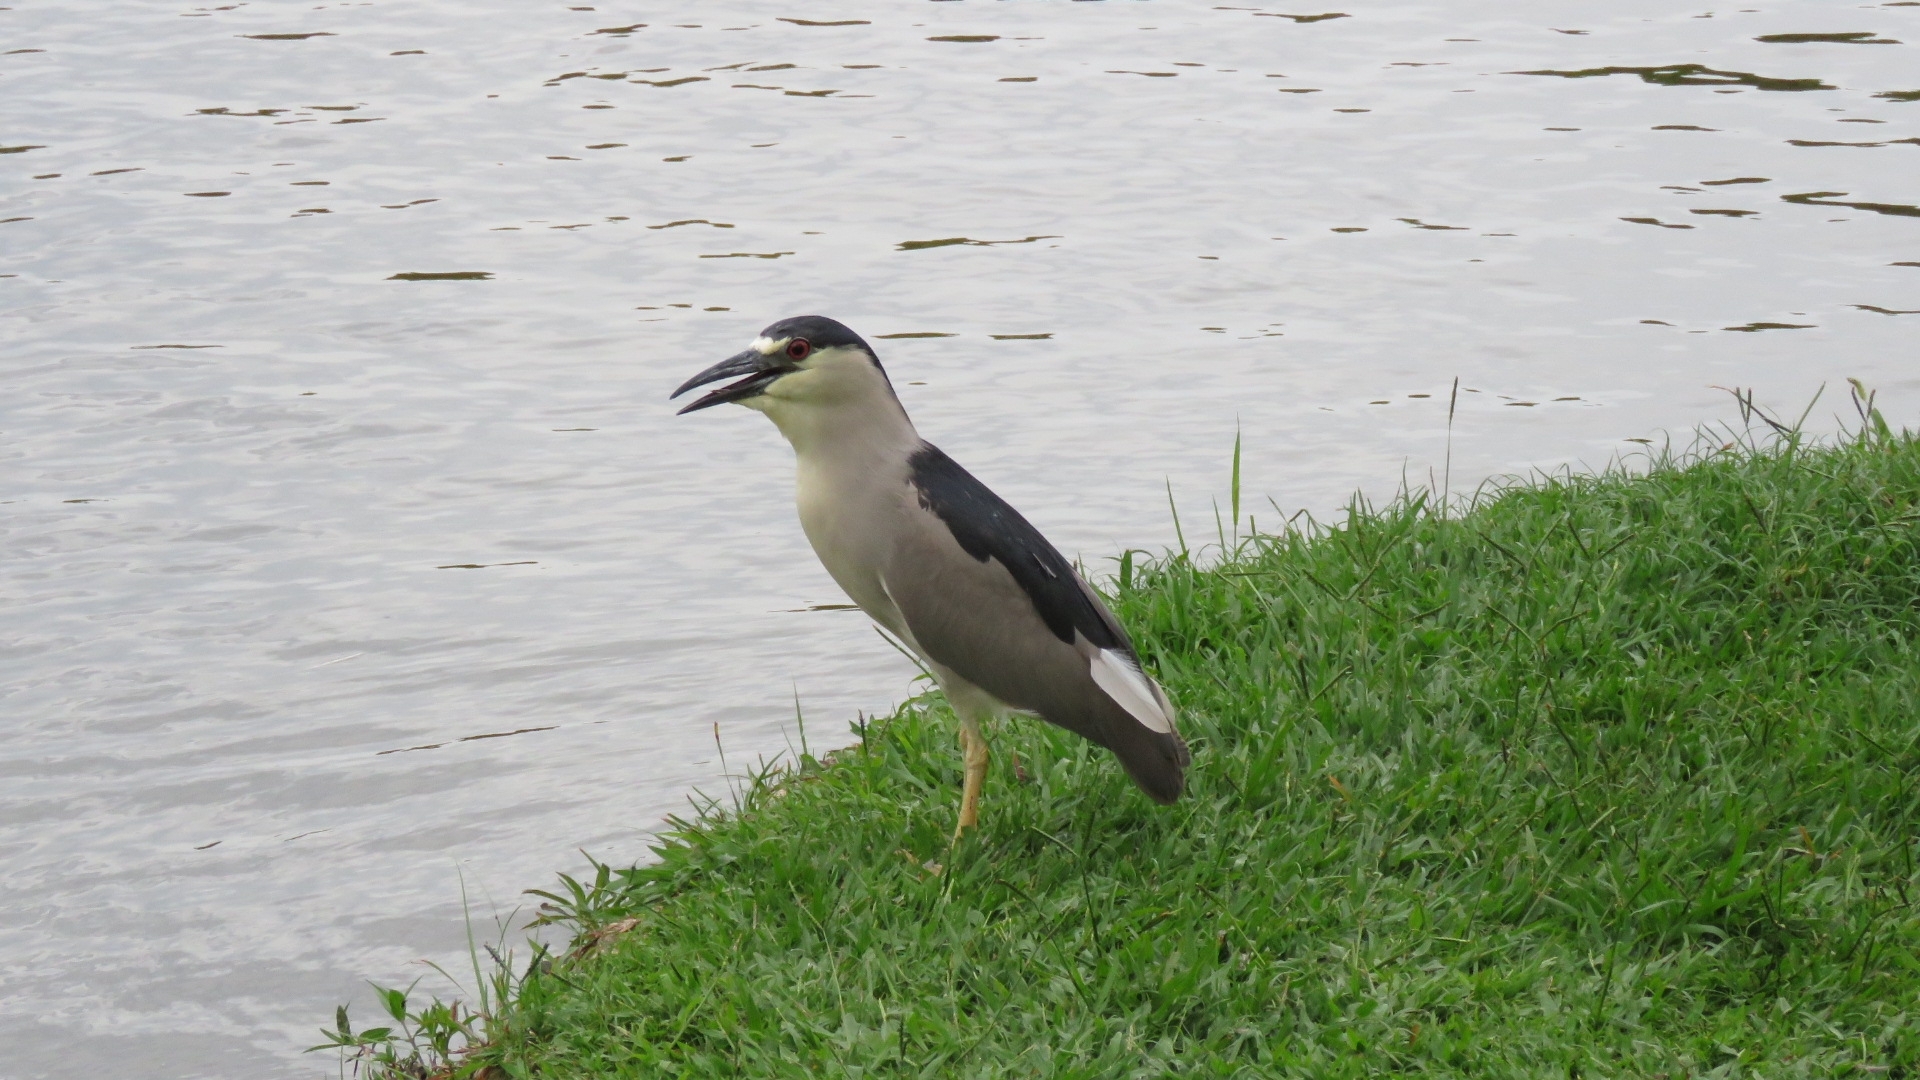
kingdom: Animalia
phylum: Chordata
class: Aves
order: Pelecaniformes
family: Ardeidae
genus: Nycticorax
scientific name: Nycticorax nycticorax
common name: Black-crowned night heron
